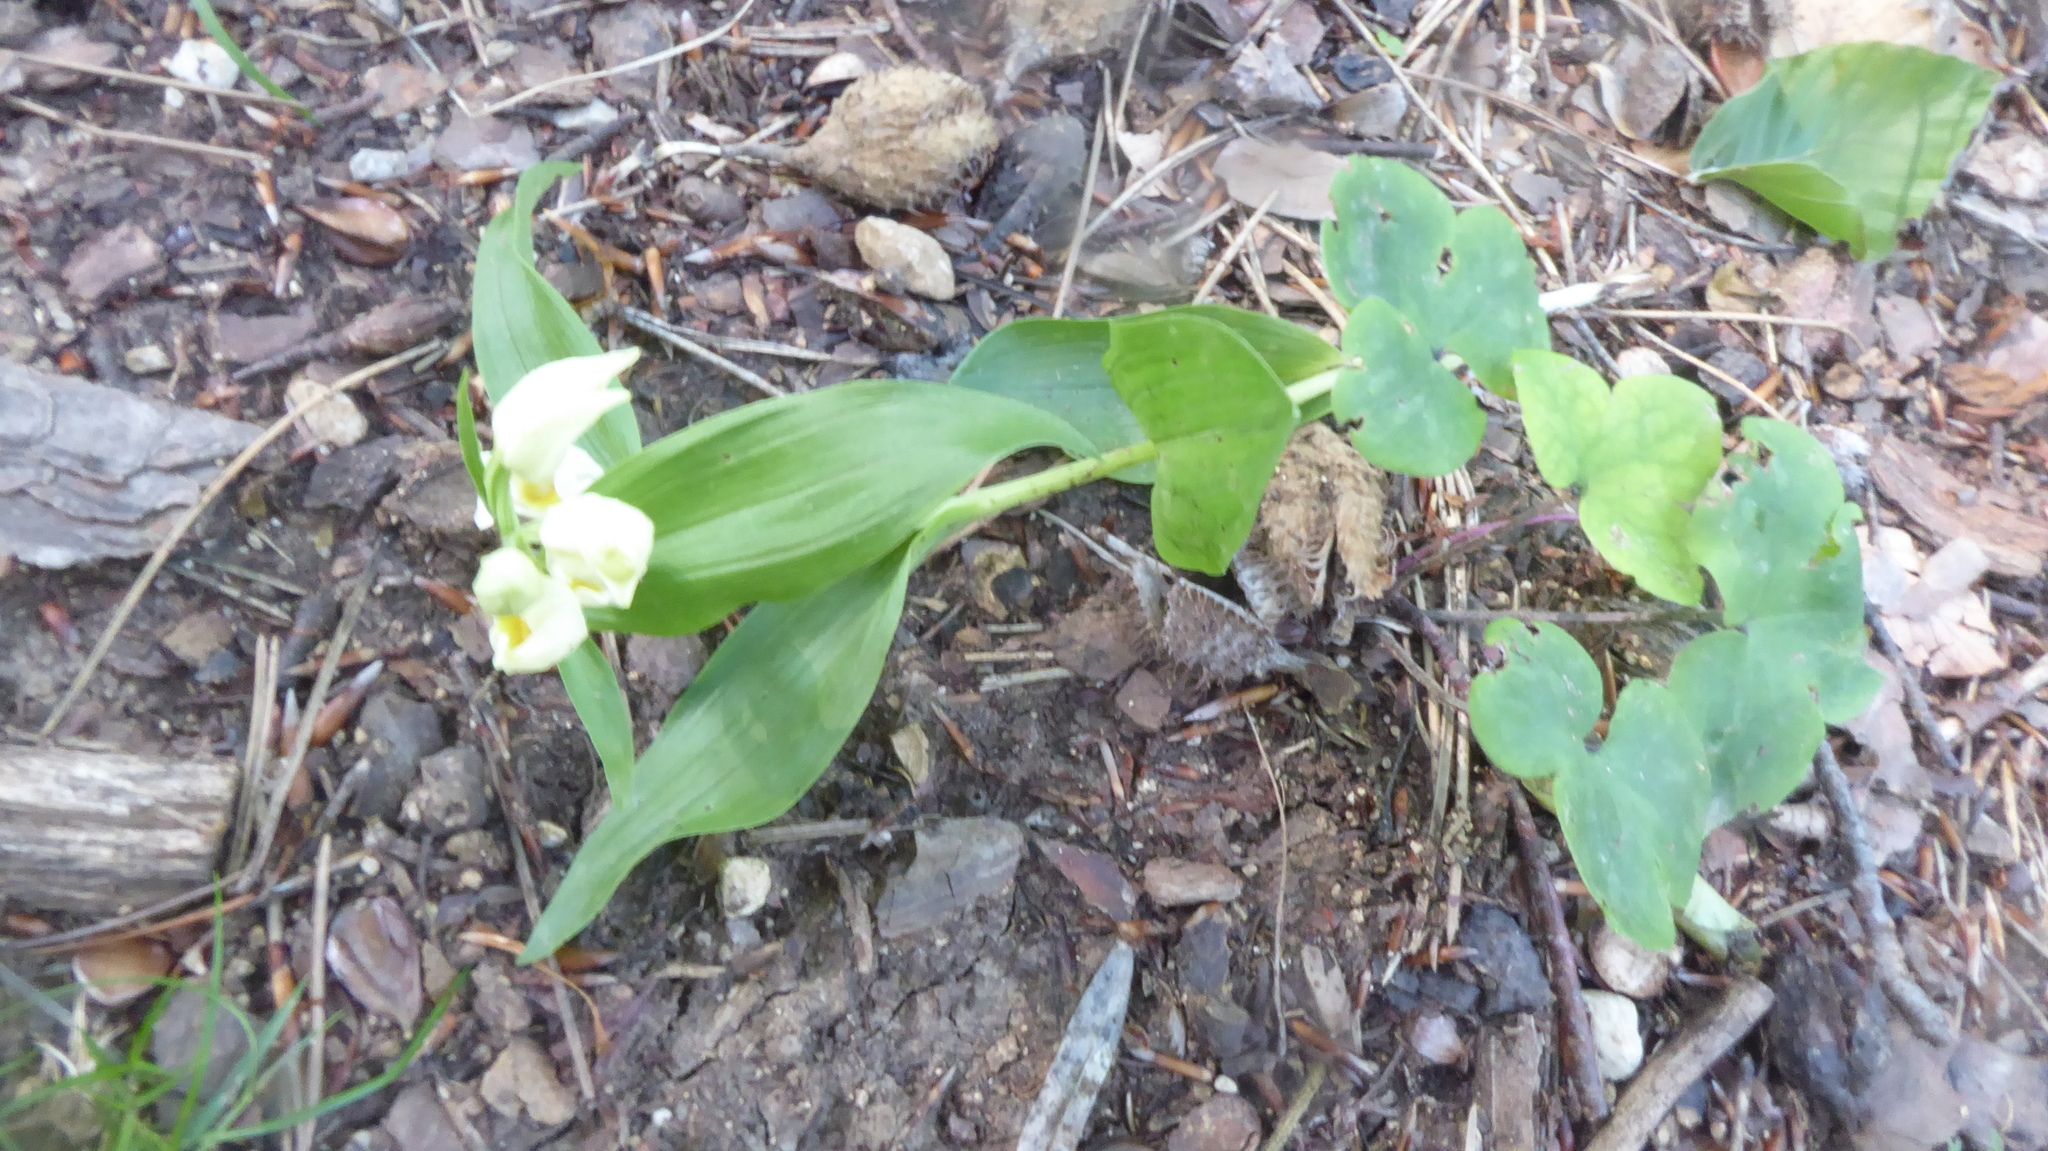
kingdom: Plantae
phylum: Tracheophyta
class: Liliopsida
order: Asparagales
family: Orchidaceae
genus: Cephalanthera
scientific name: Cephalanthera damasonium
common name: White helleborine
